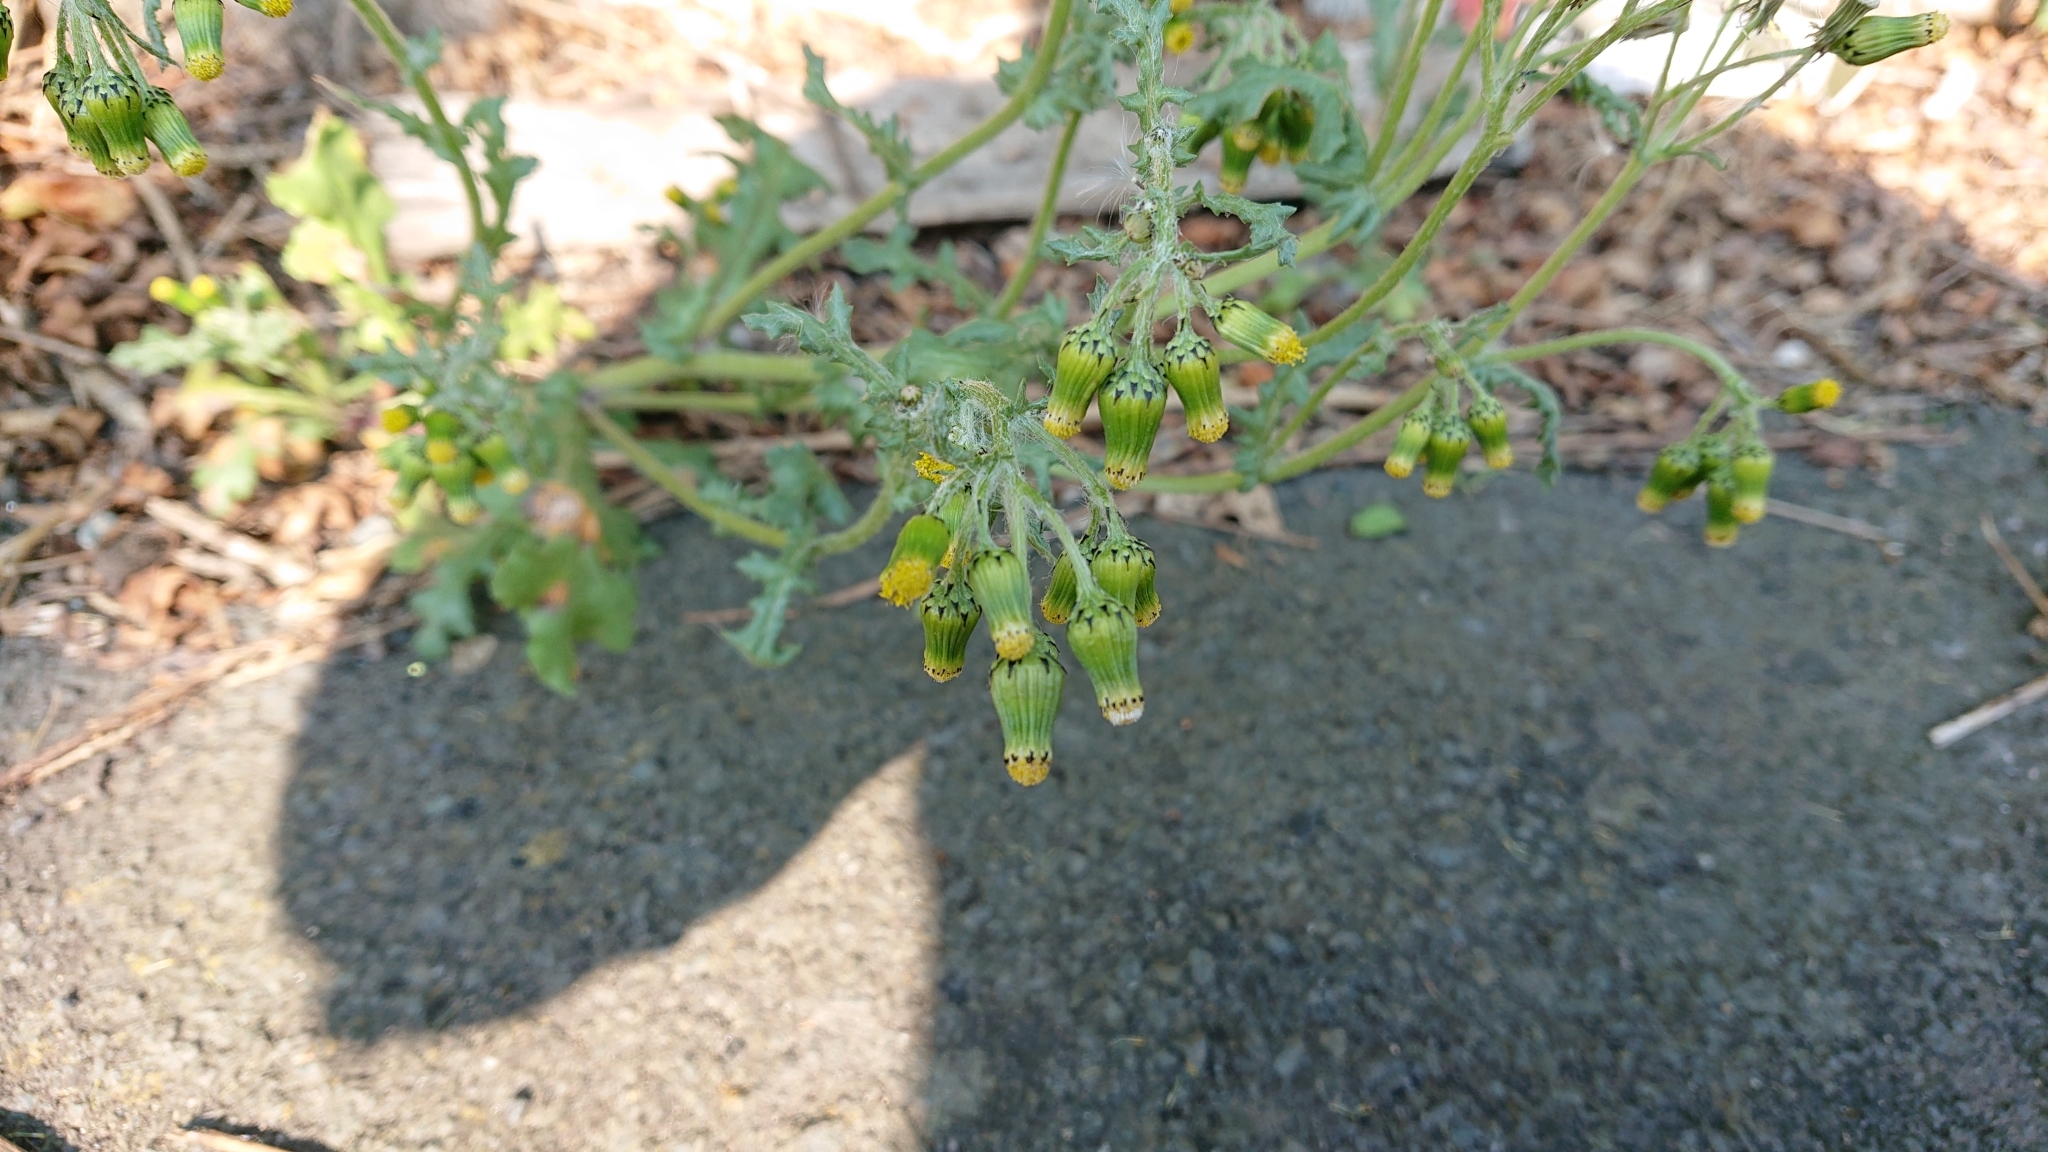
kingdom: Plantae
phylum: Tracheophyta
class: Magnoliopsida
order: Asterales
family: Asteraceae
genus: Senecio
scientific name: Senecio vulgaris
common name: Old-man-in-the-spring
